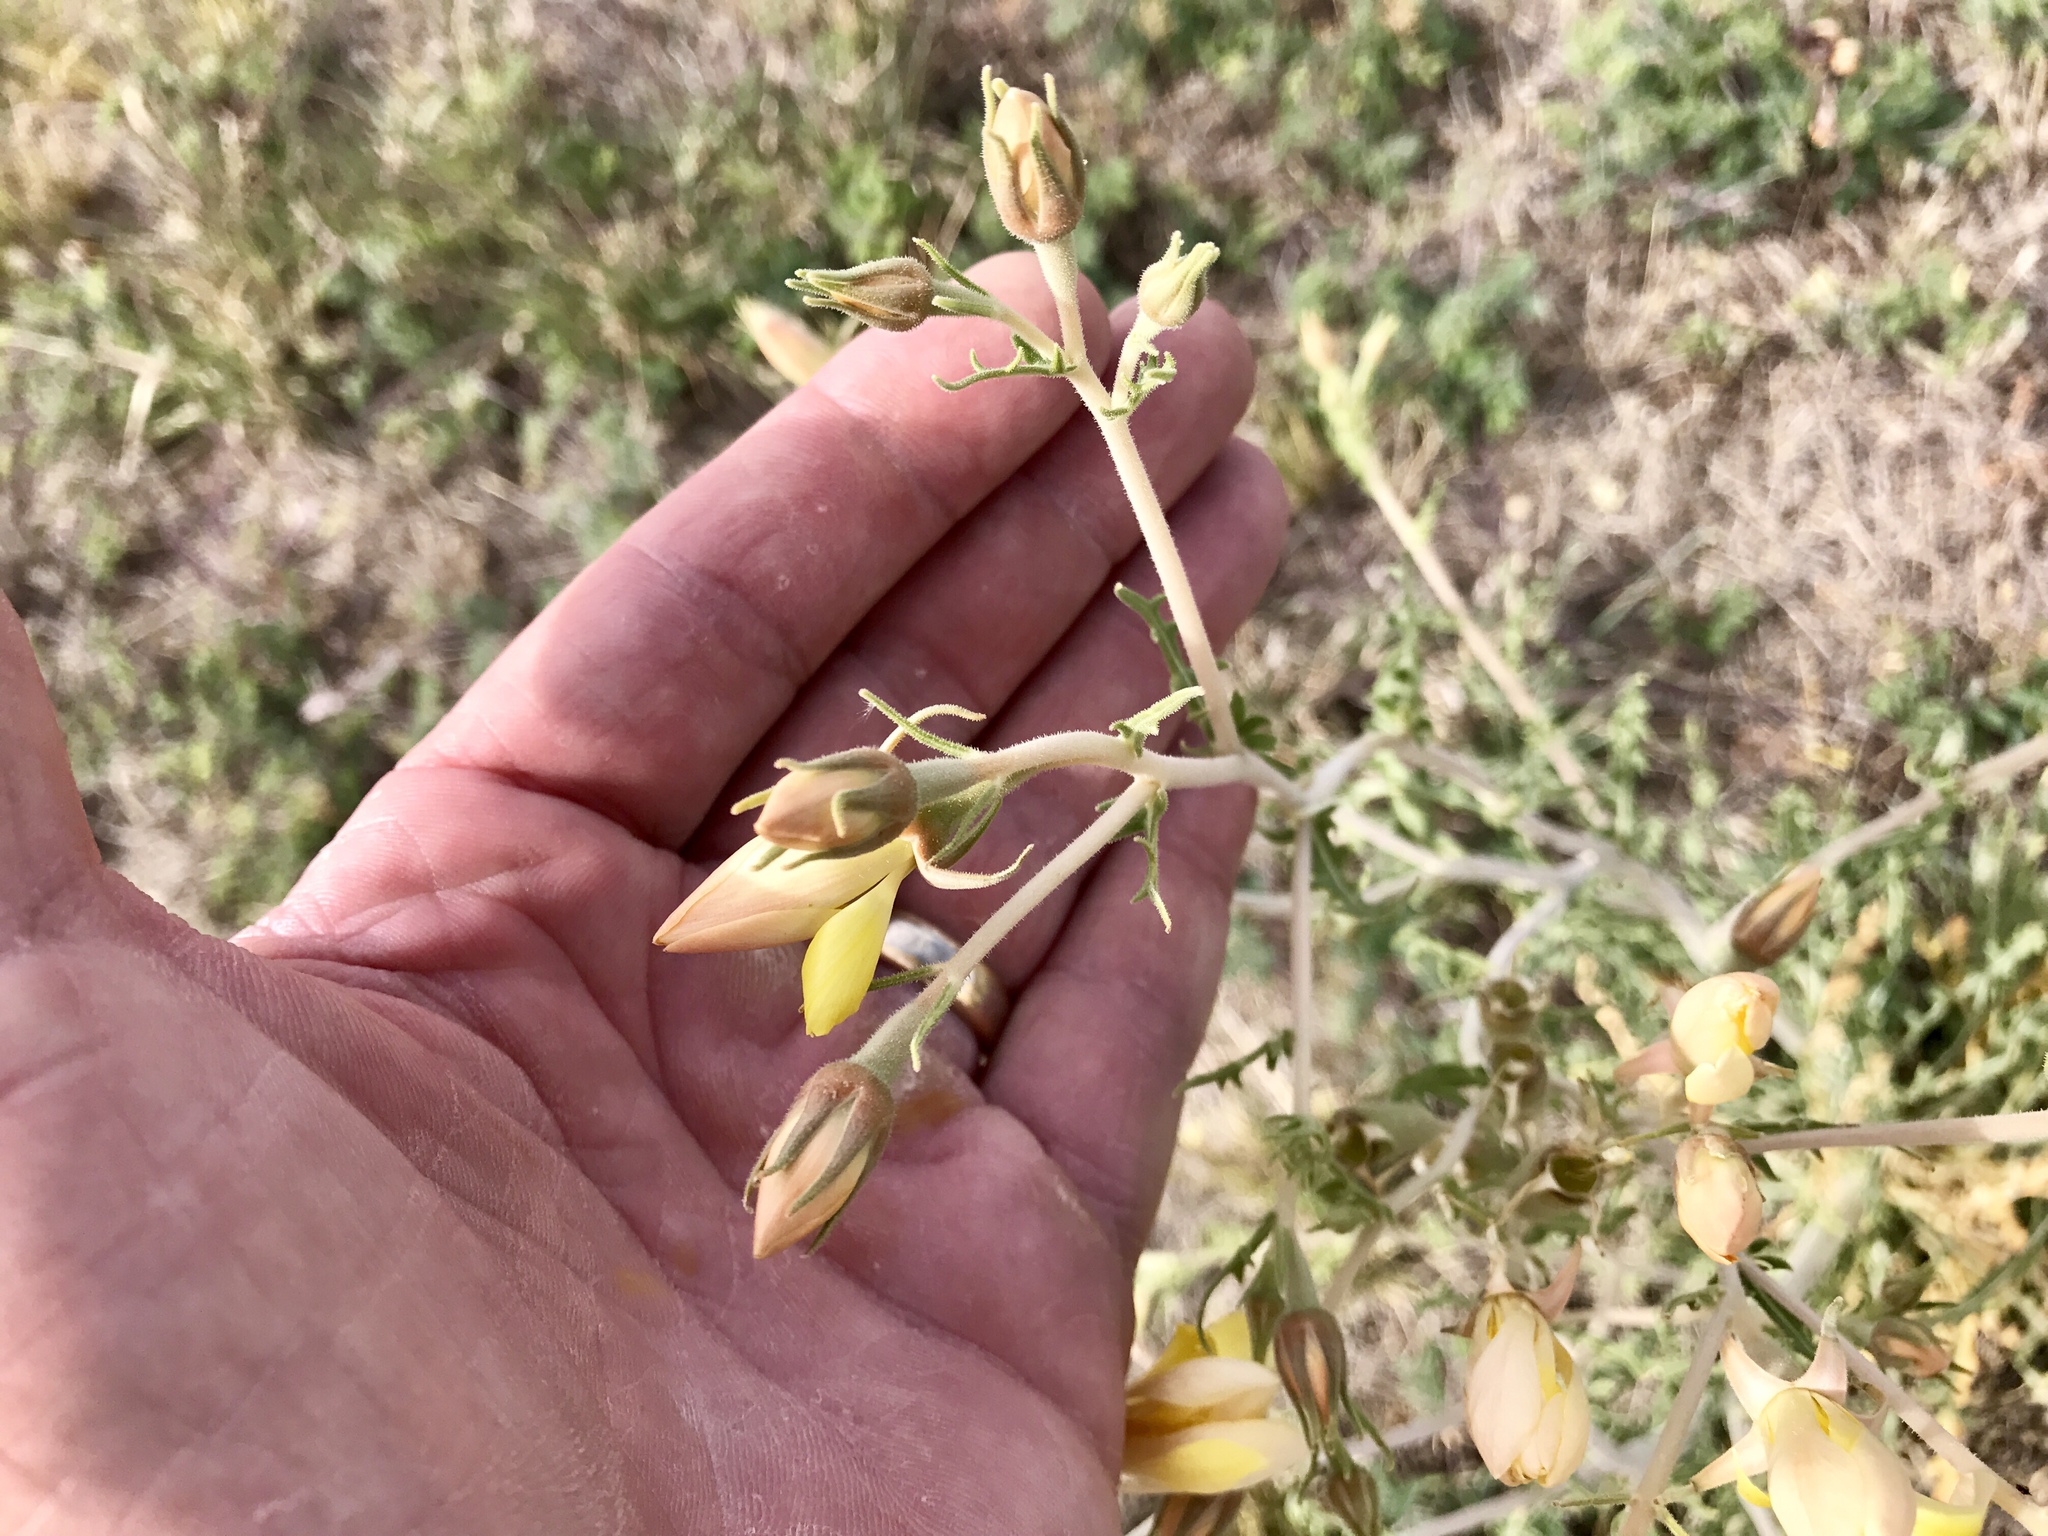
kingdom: Plantae
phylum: Tracheophyta
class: Magnoliopsida
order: Cornales
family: Loasaceae
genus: Mentzelia
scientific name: Mentzelia longiloba
